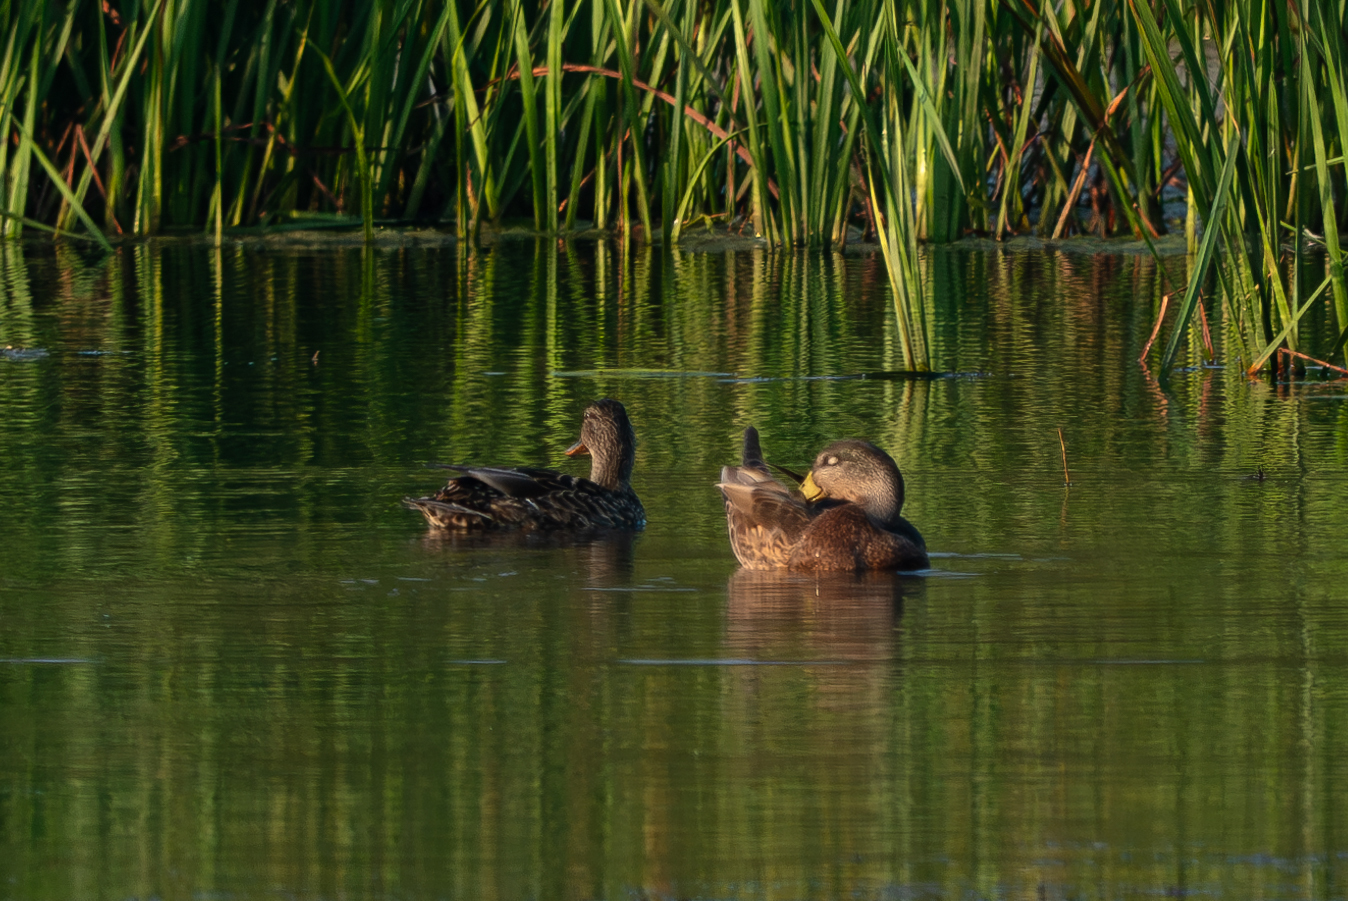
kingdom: Animalia
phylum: Chordata
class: Aves
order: Anseriformes
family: Anatidae
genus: Anas
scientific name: Anas platyrhynchos
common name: Mallard
